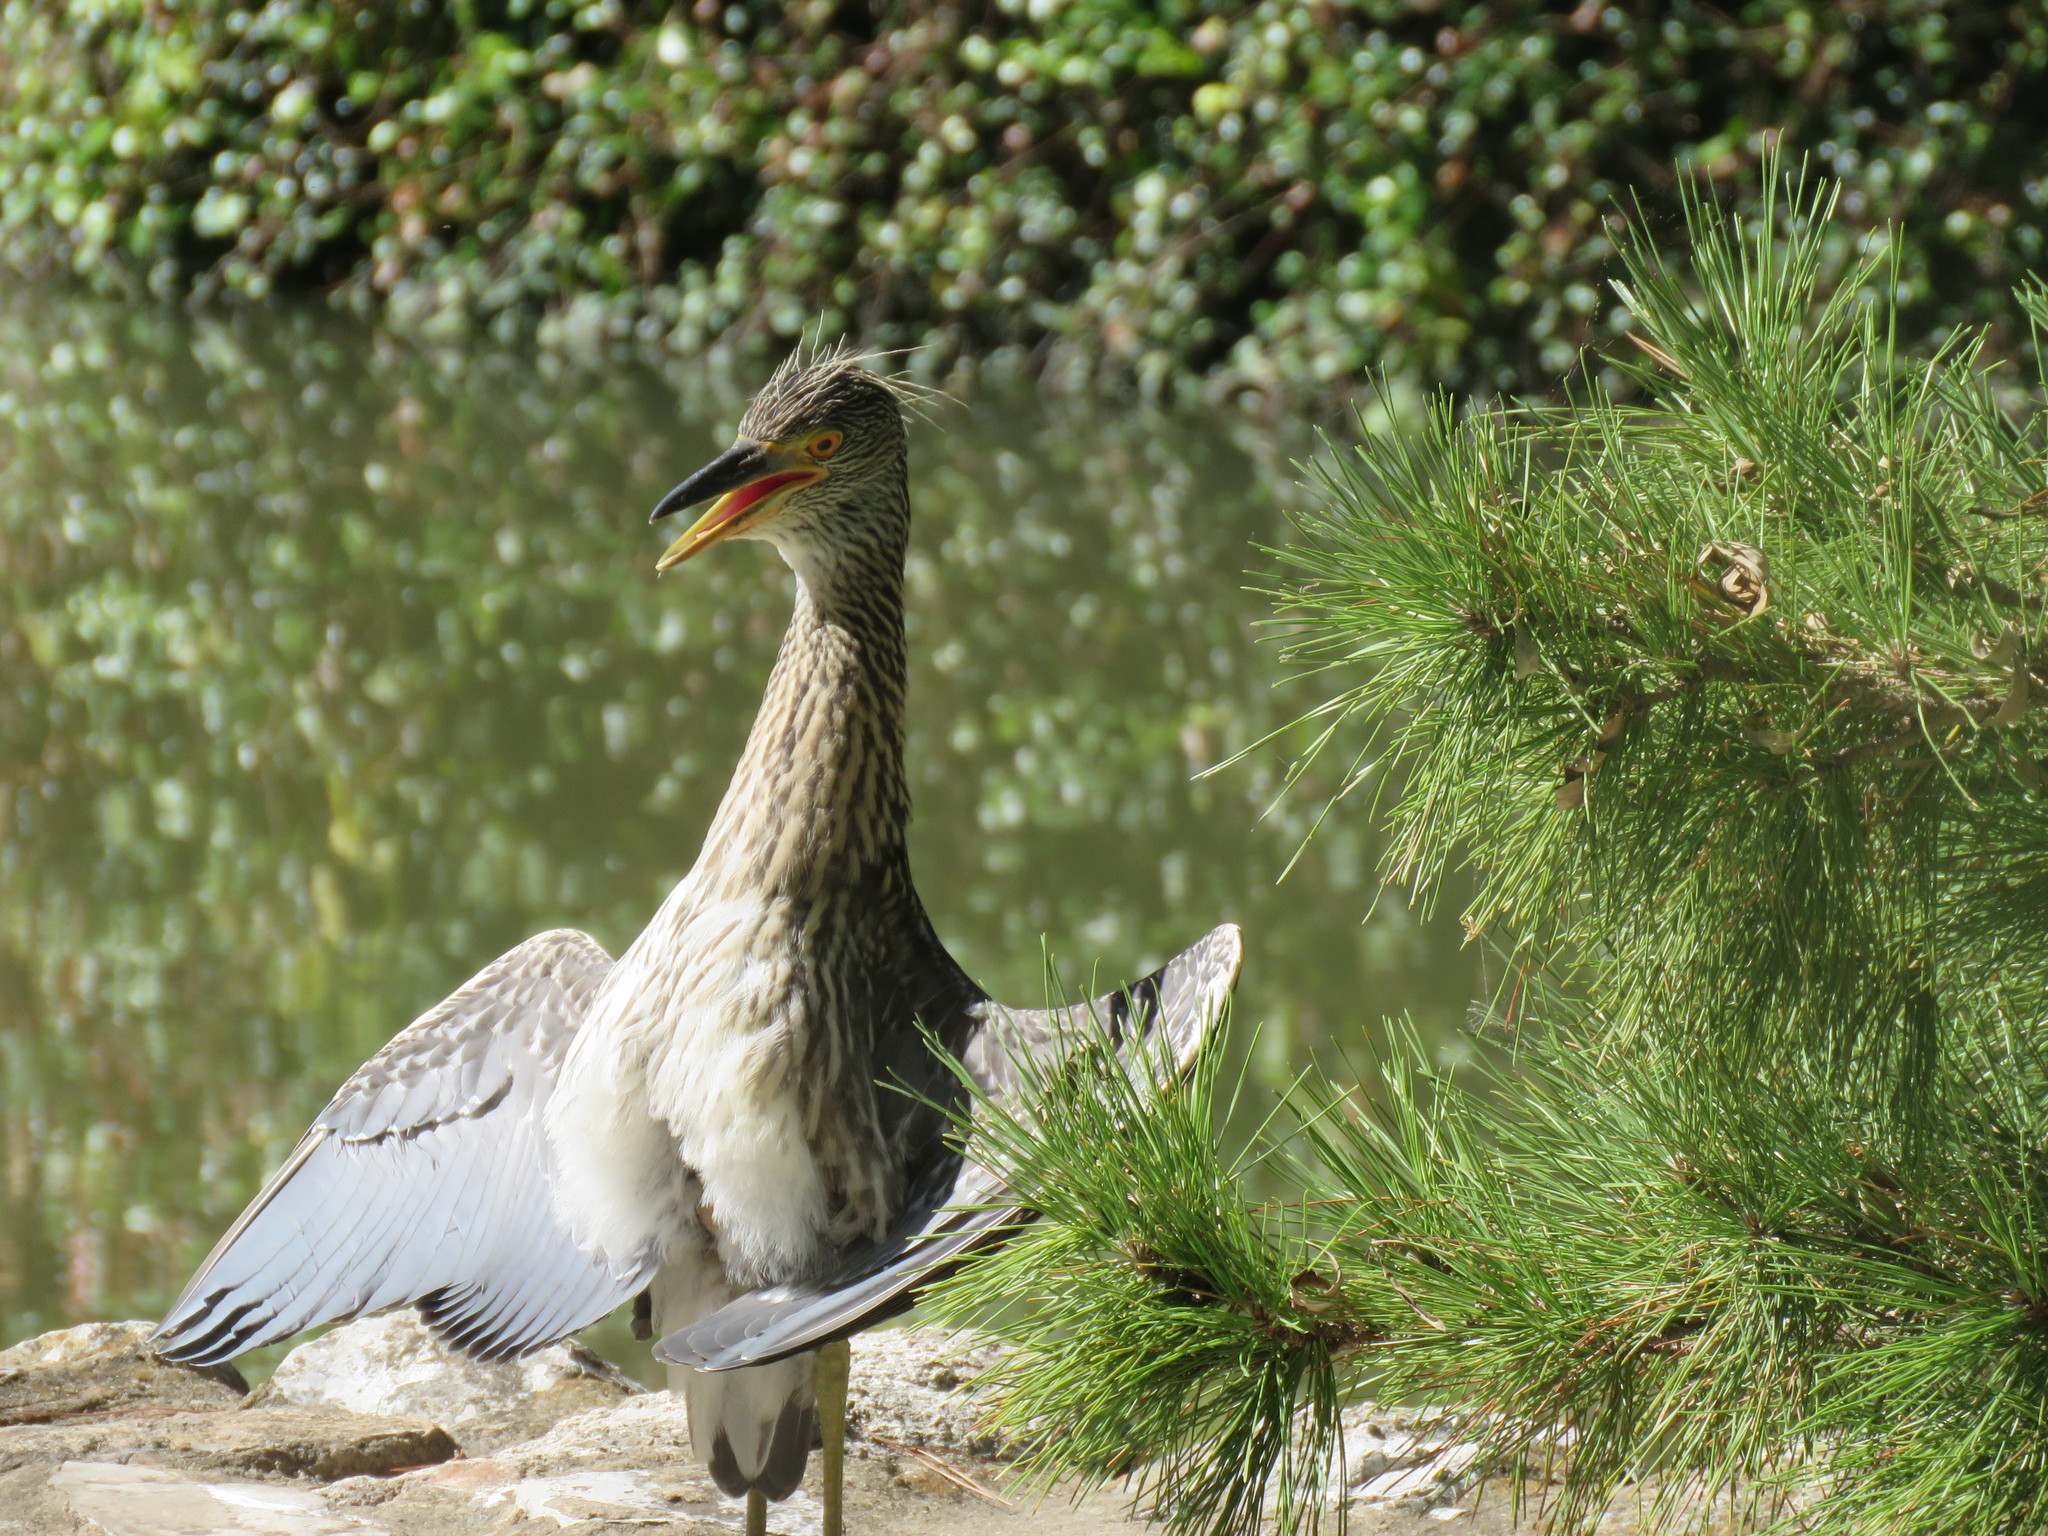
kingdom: Animalia
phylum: Chordata
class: Aves
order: Pelecaniformes
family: Ardeidae
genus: Nyctanassa
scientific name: Nyctanassa violacea
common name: Yellow-crowned night heron
